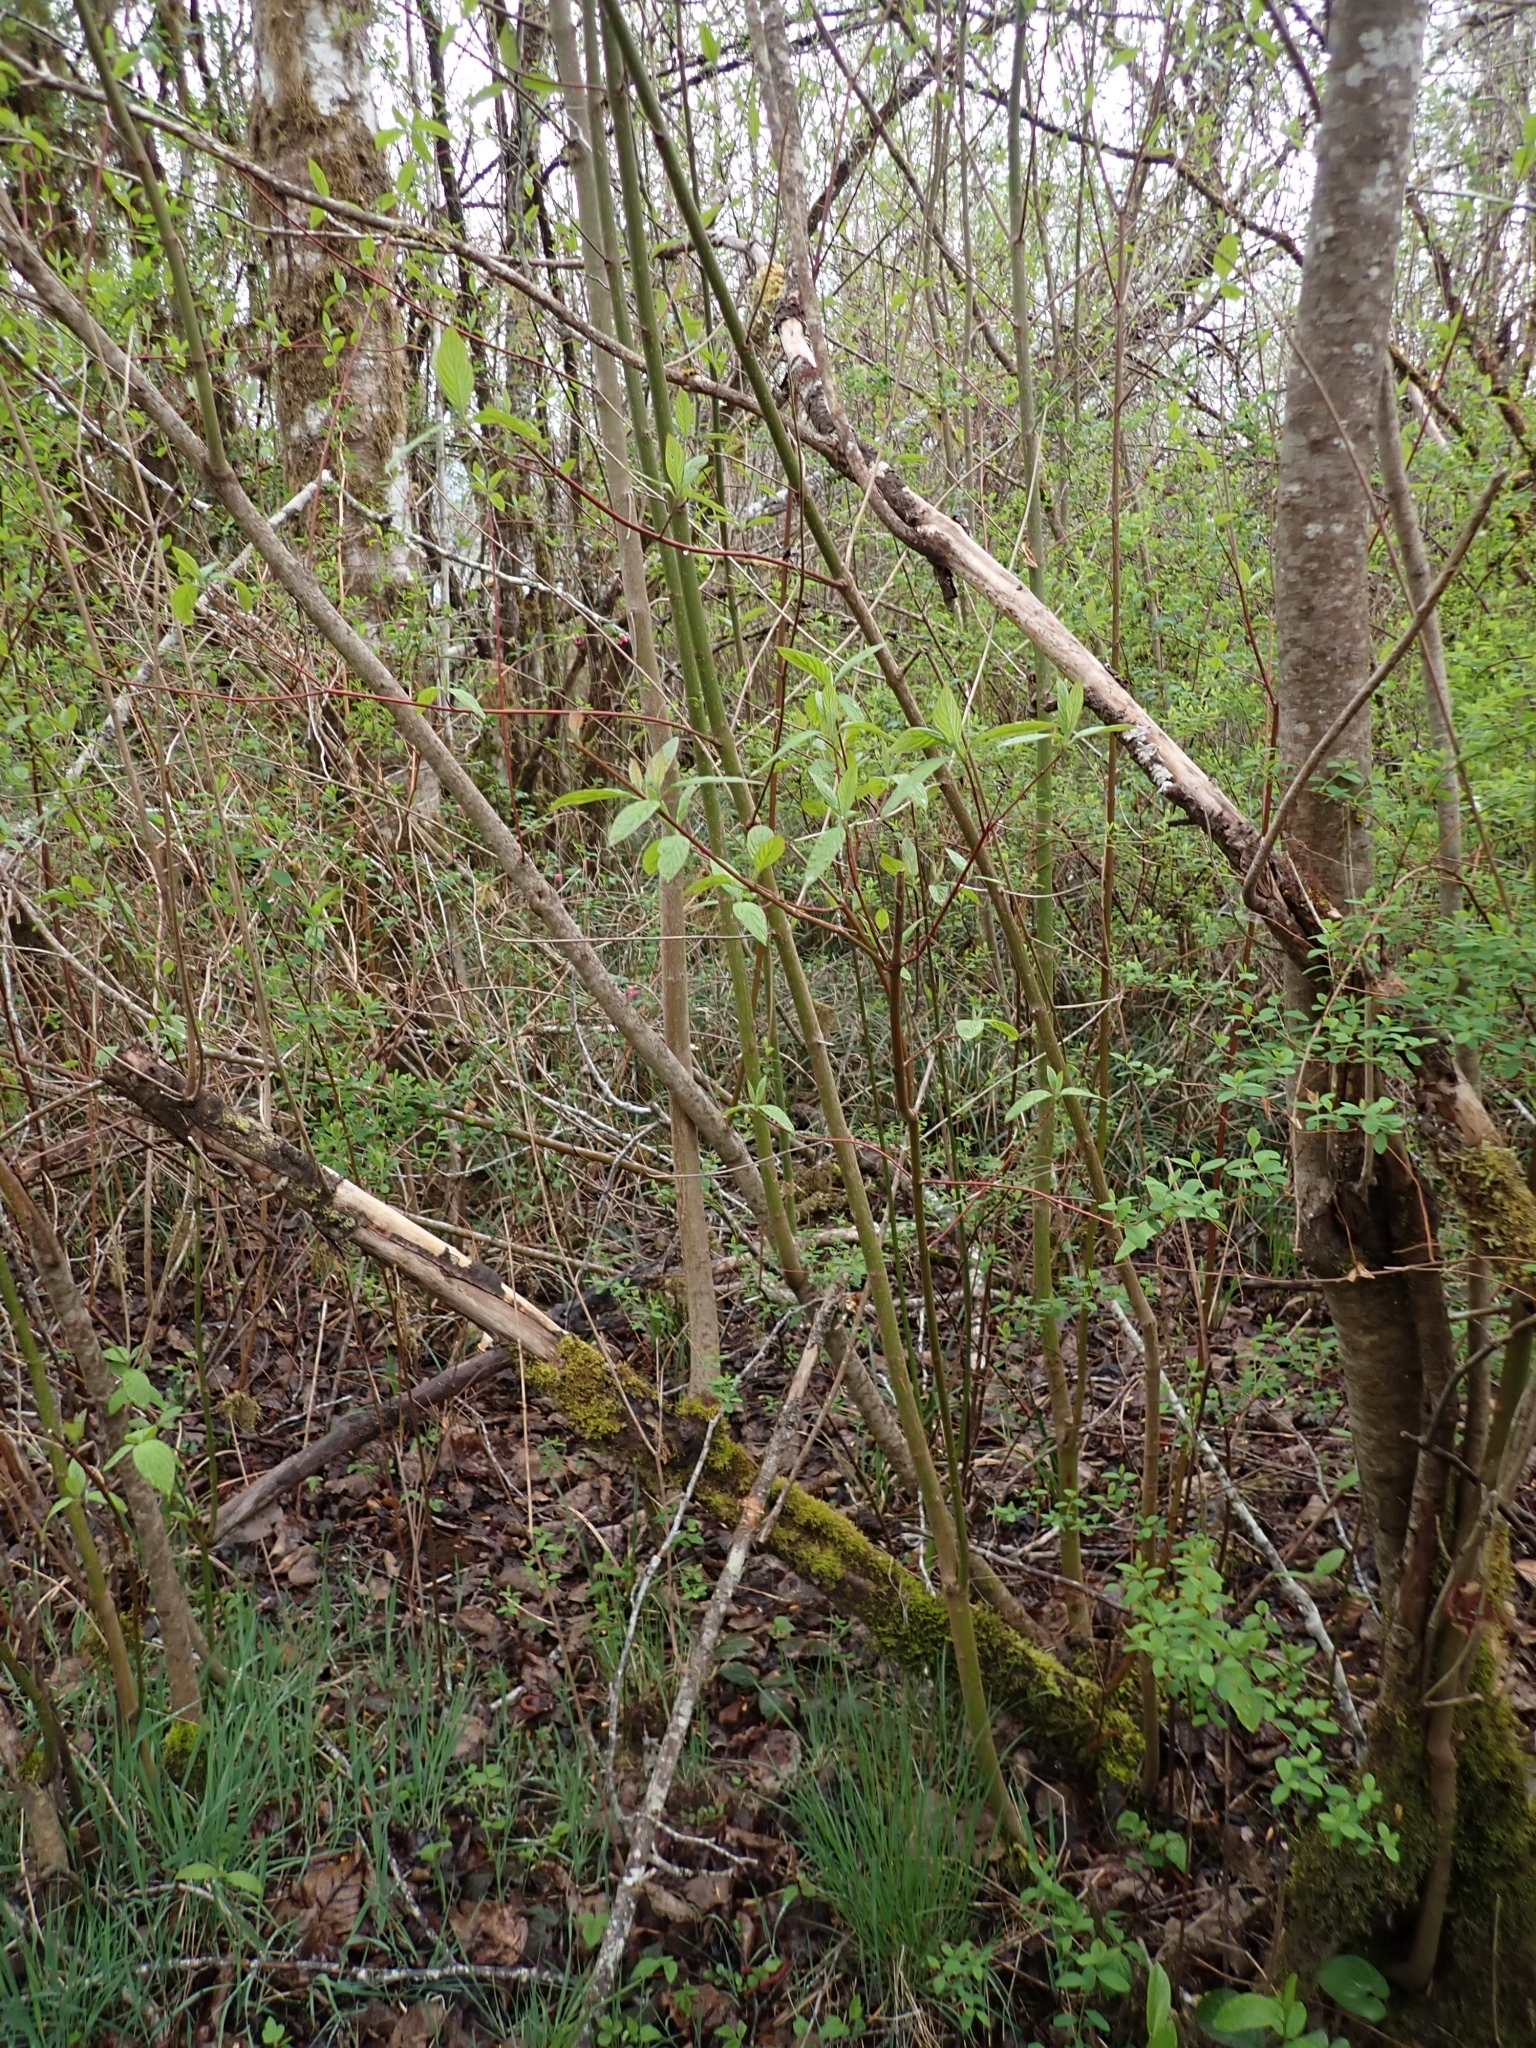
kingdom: Plantae
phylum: Tracheophyta
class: Magnoliopsida
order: Cornales
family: Cornaceae
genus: Cornus
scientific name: Cornus sericea
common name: Red-osier dogwood
